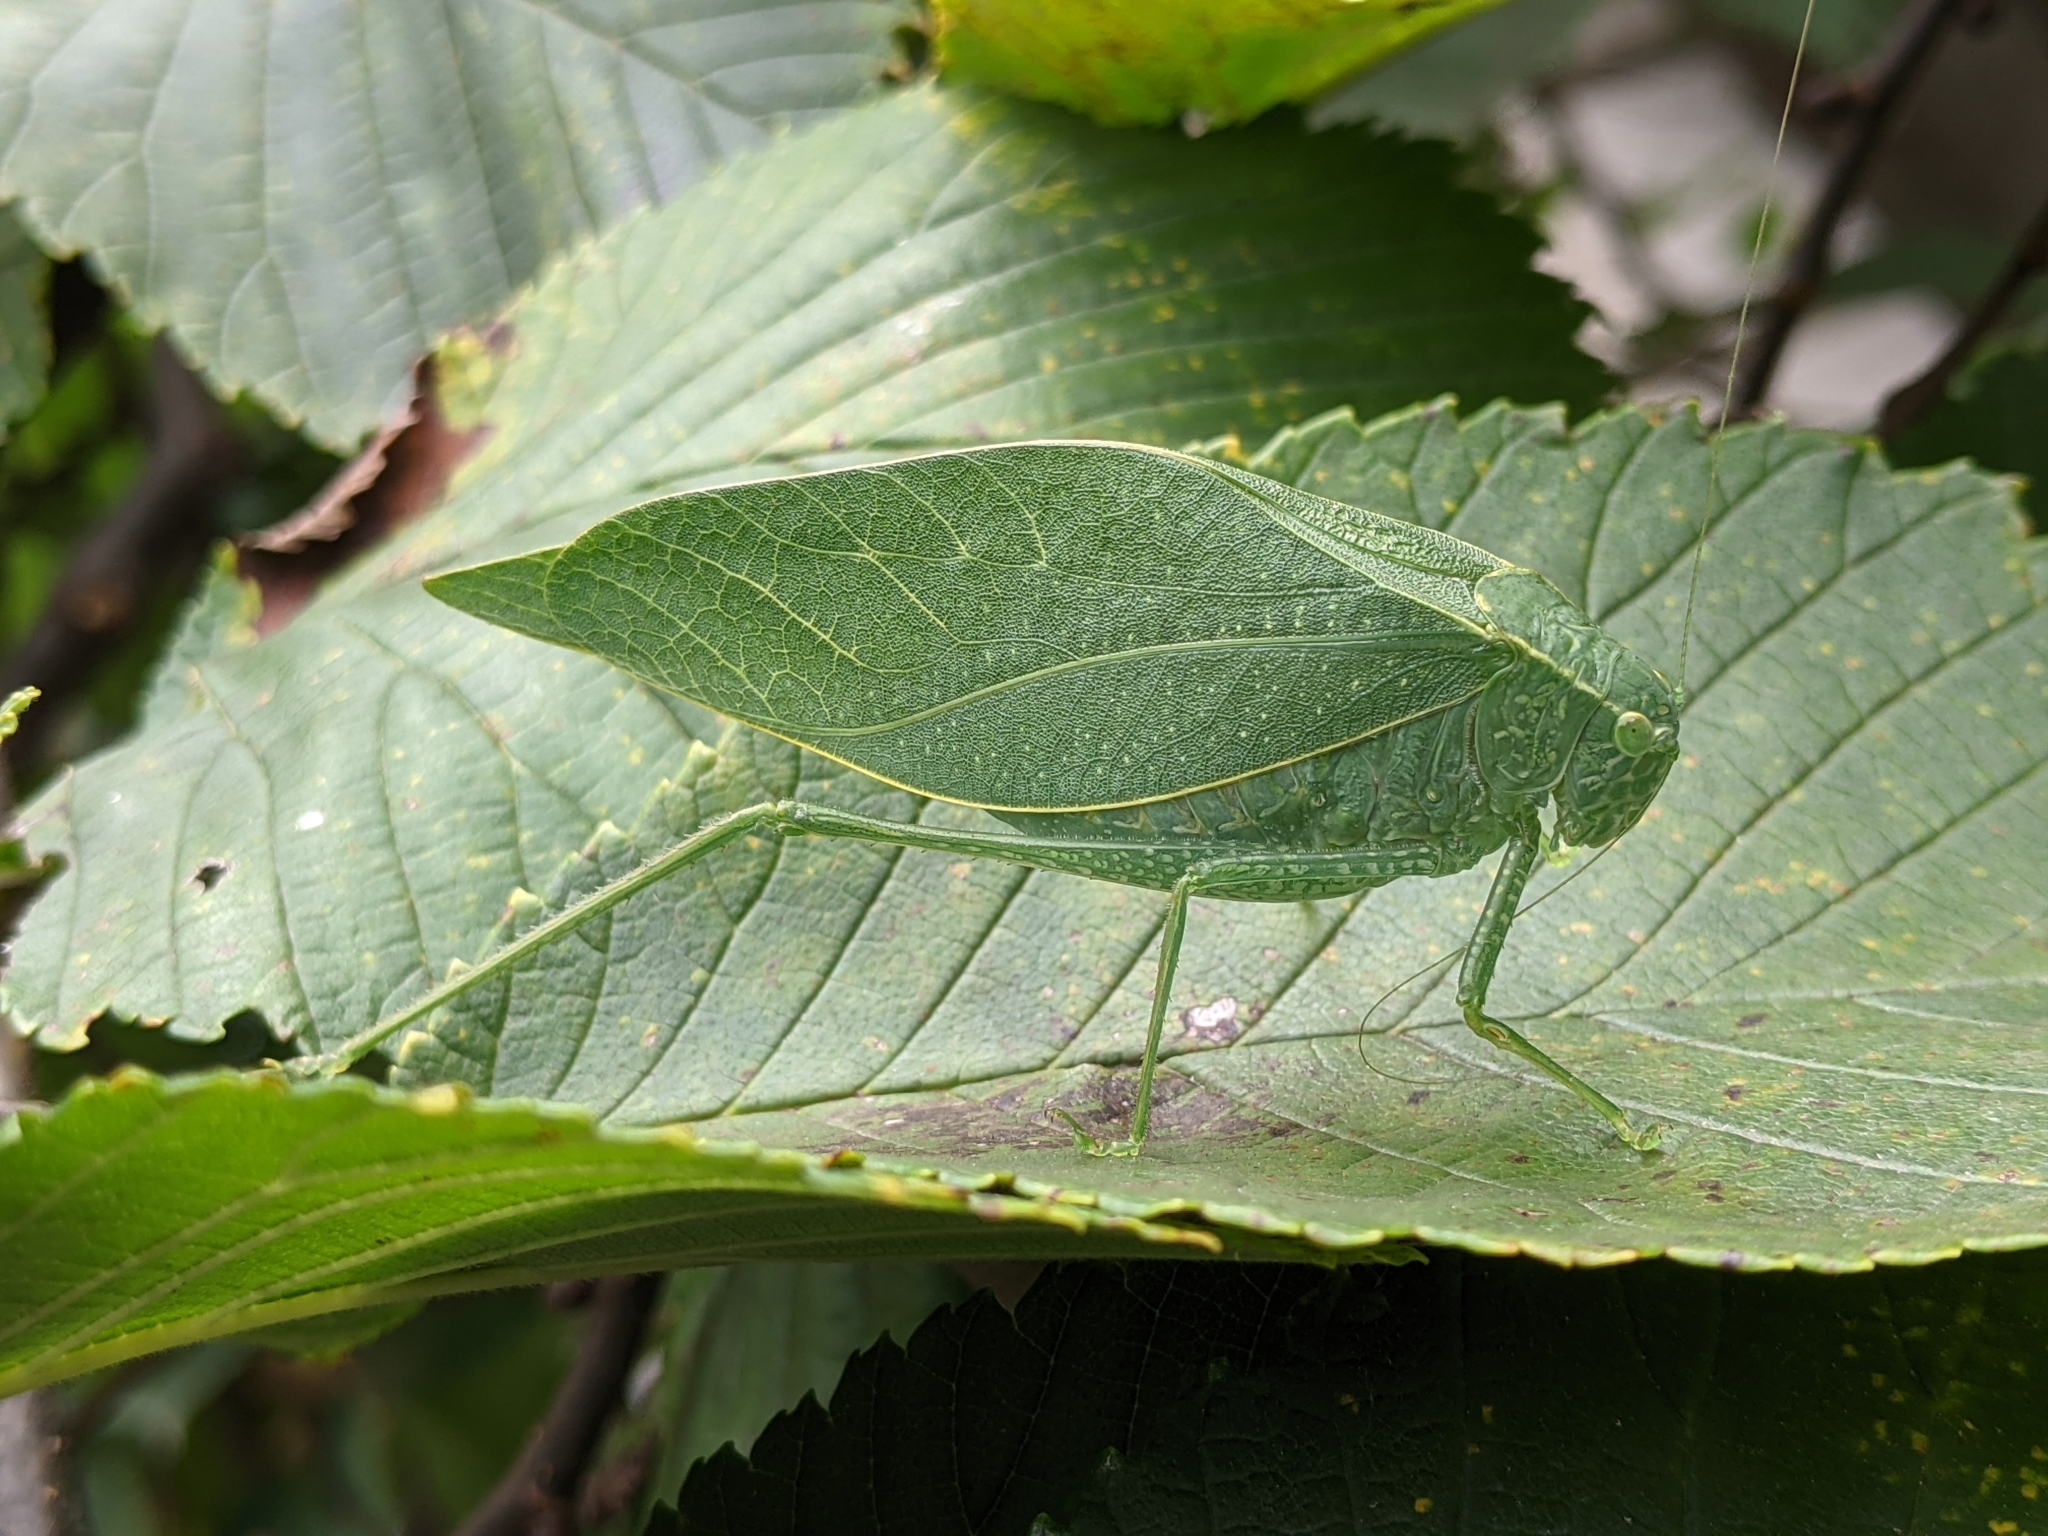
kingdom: Animalia
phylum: Arthropoda
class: Insecta
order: Orthoptera
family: Tettigoniidae
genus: Microcentrum
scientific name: Microcentrum rhombifolium
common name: Broad-winged katydid
